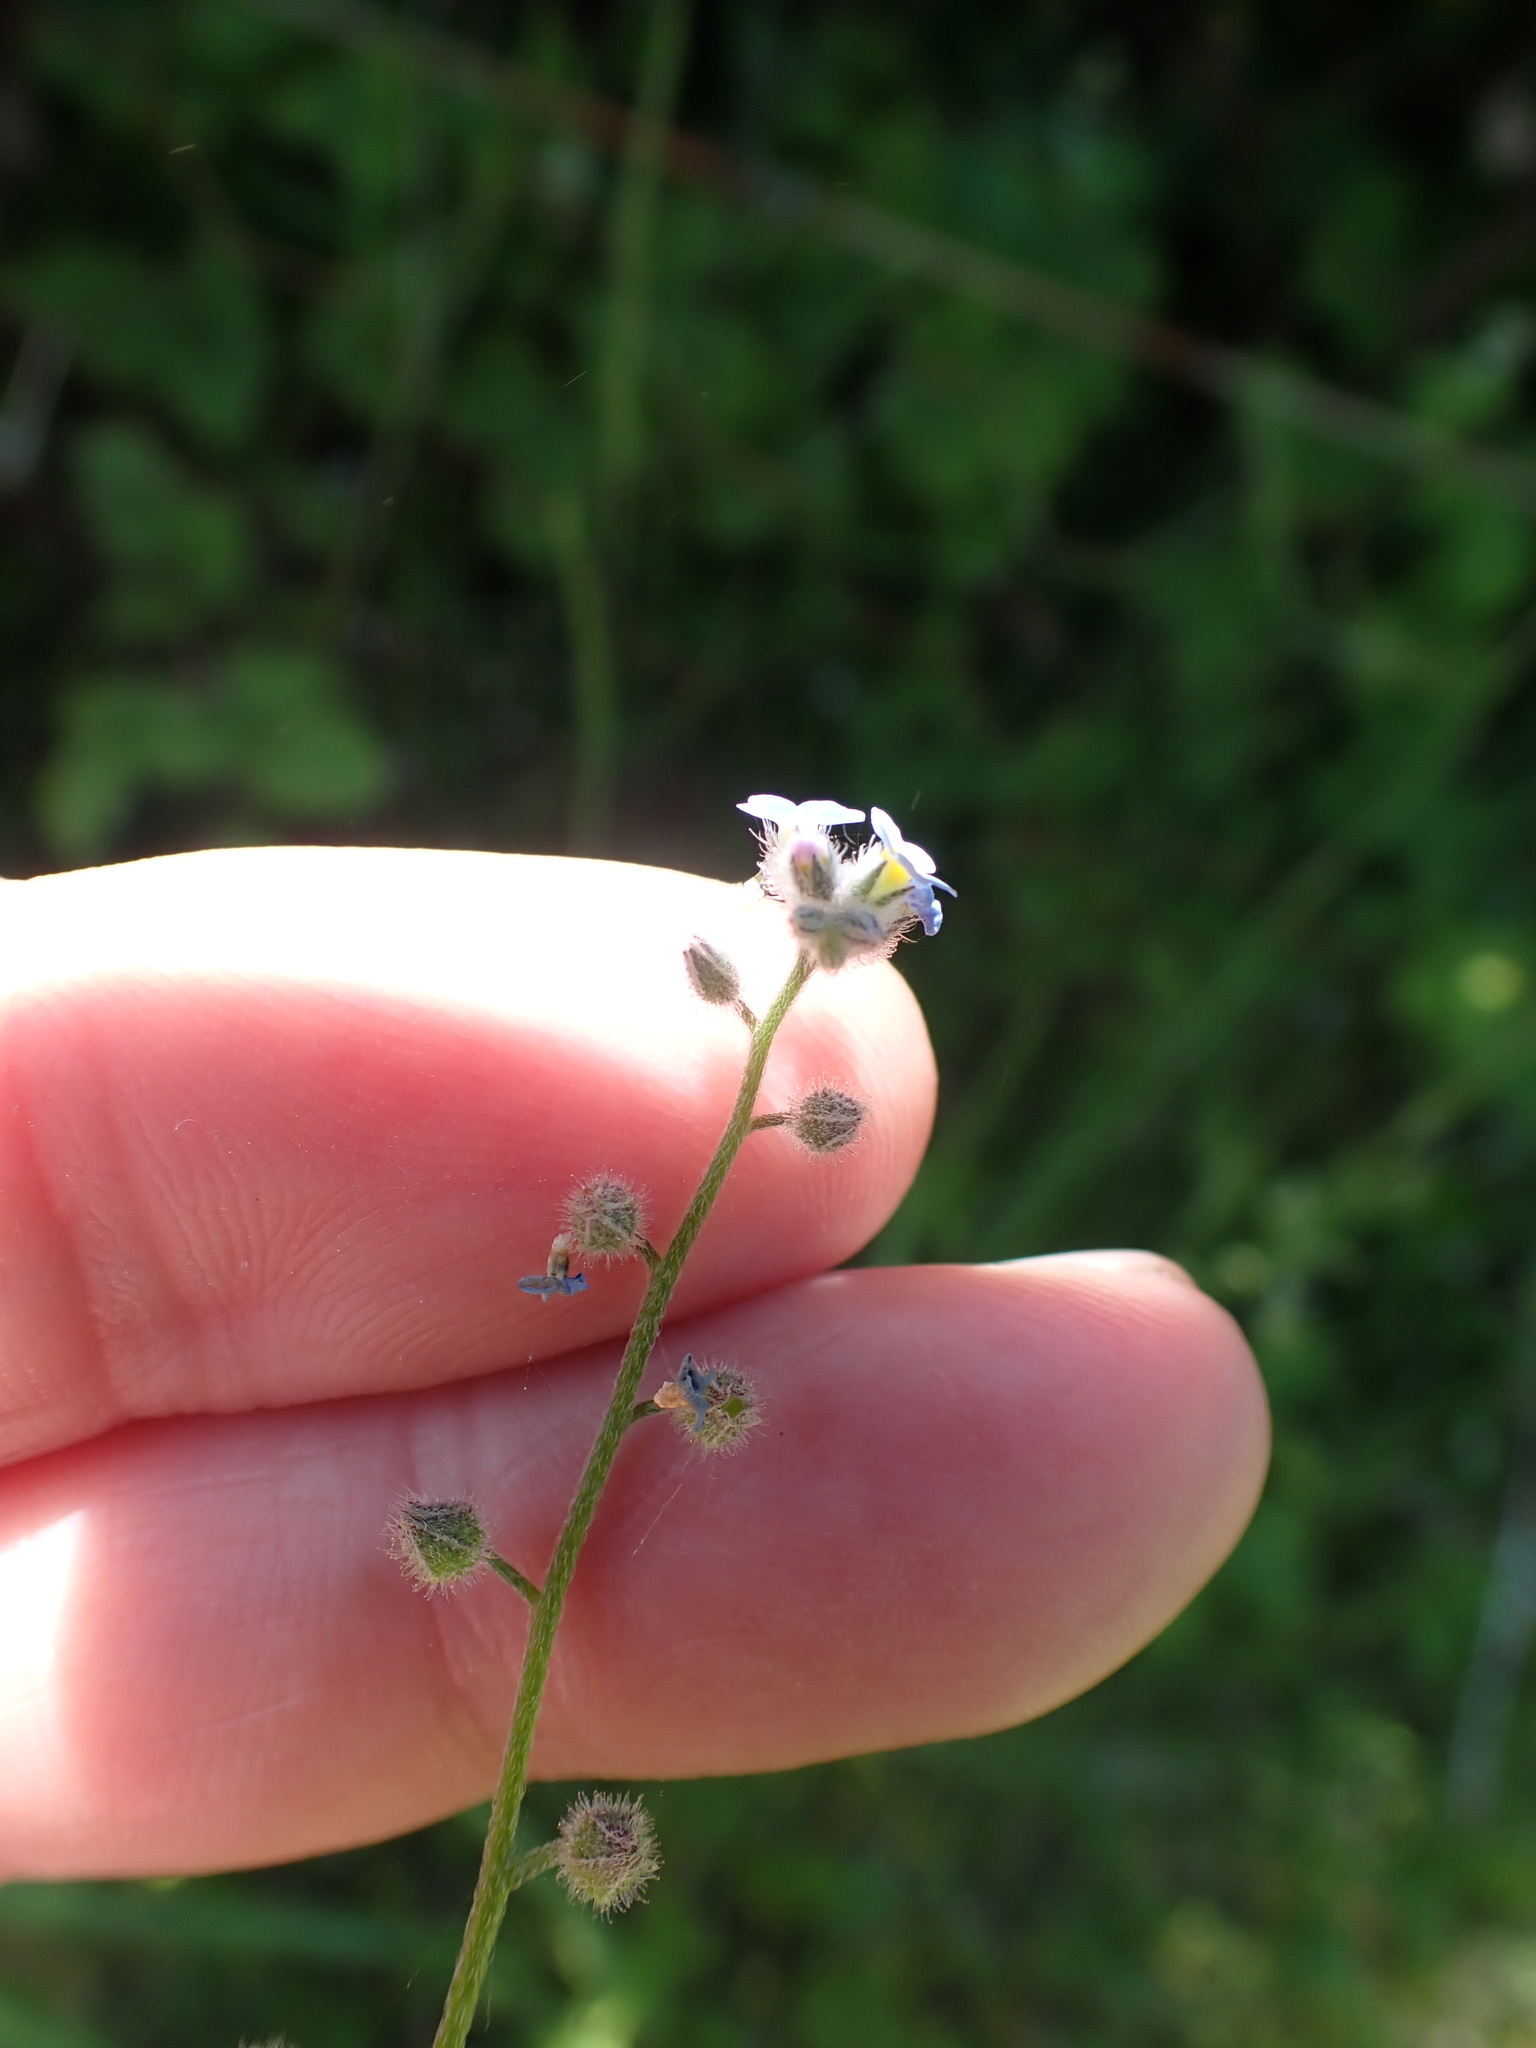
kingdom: Plantae
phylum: Tracheophyta
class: Magnoliopsida
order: Boraginales
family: Boraginaceae
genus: Myosotis
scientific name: Myosotis arvensis
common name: Field forget-me-not
